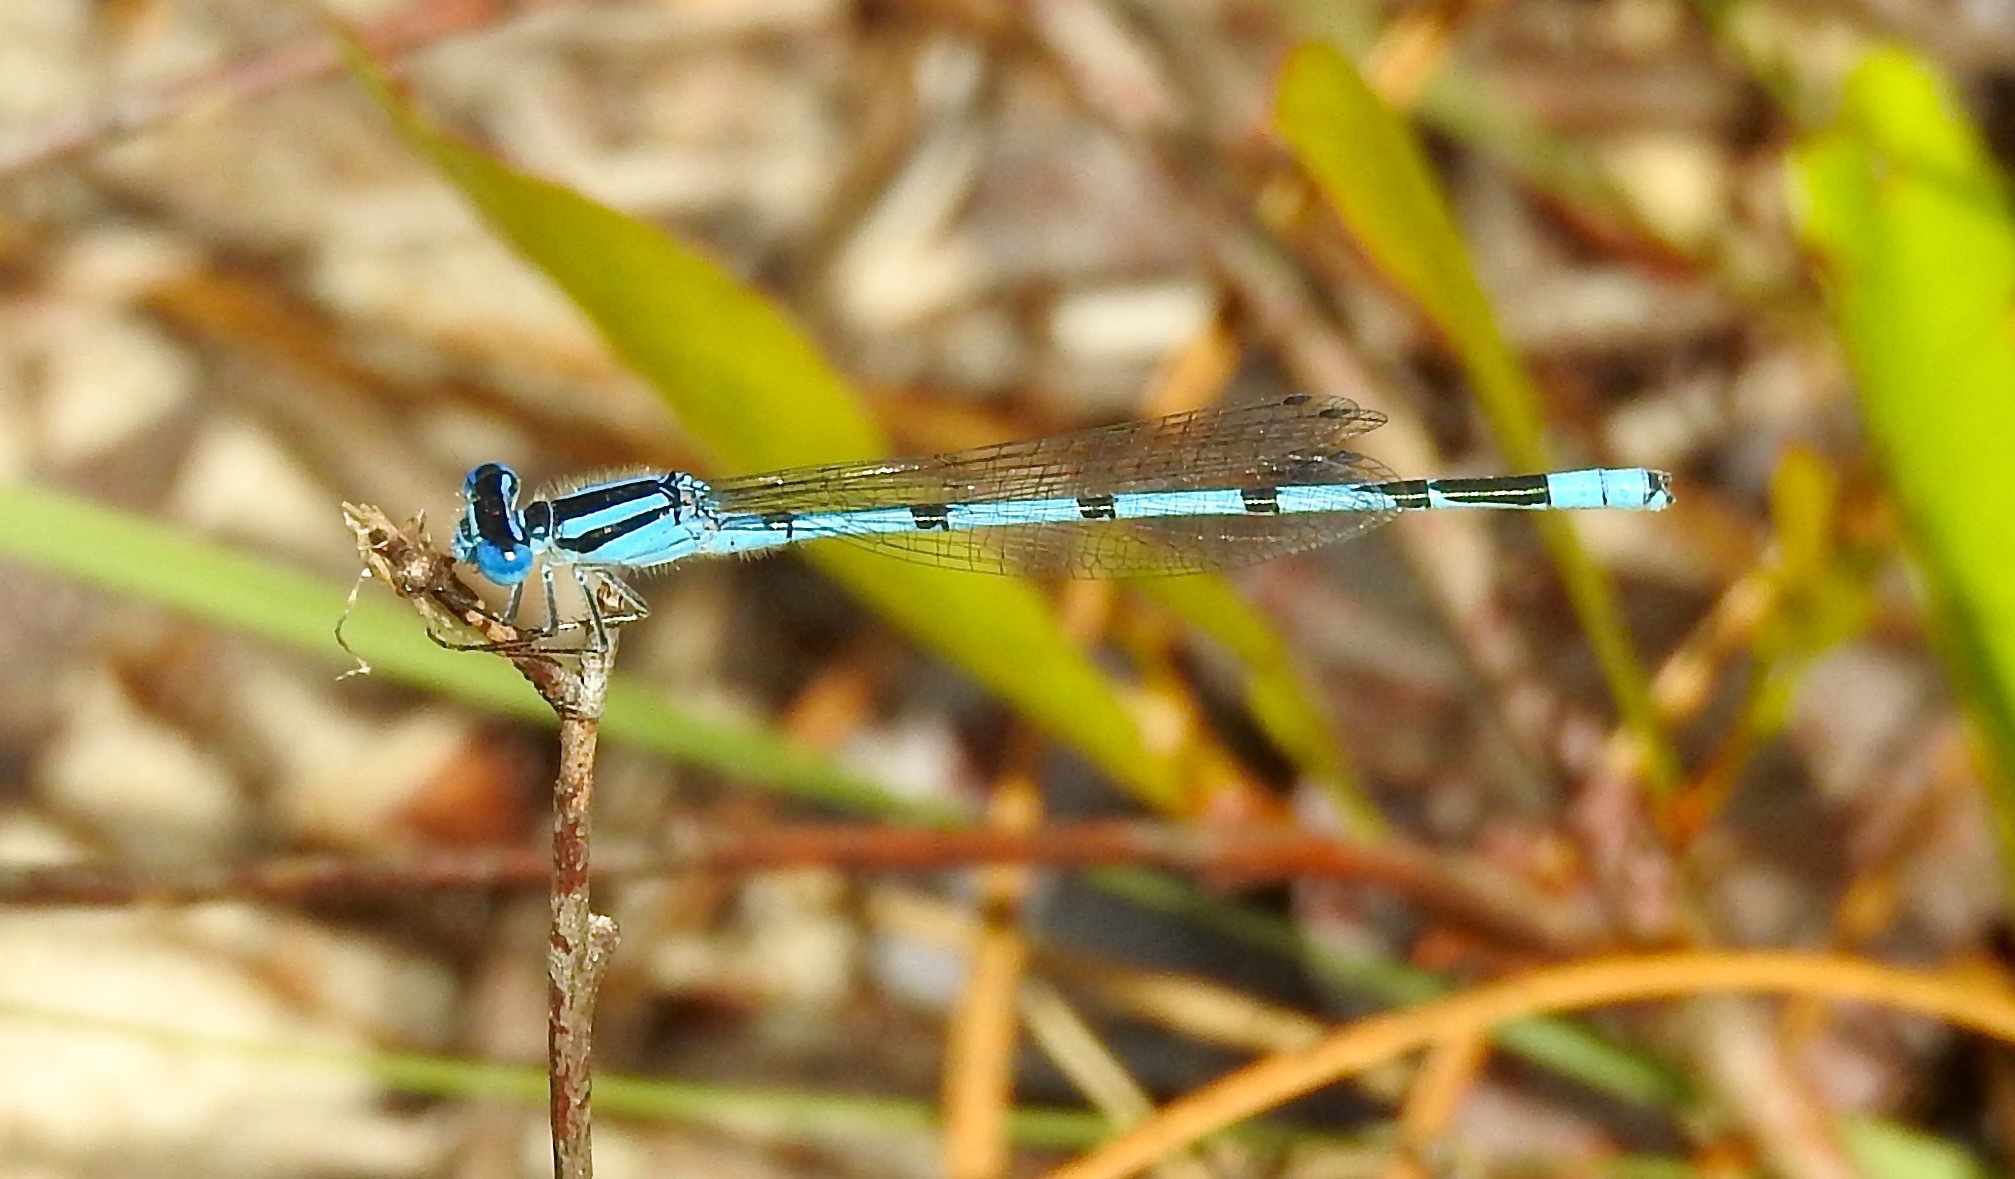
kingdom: Animalia
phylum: Arthropoda
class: Insecta
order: Odonata
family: Coenagrionidae
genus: Enallagma
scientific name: Enallagma doubledayi
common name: Atlantic bluet
